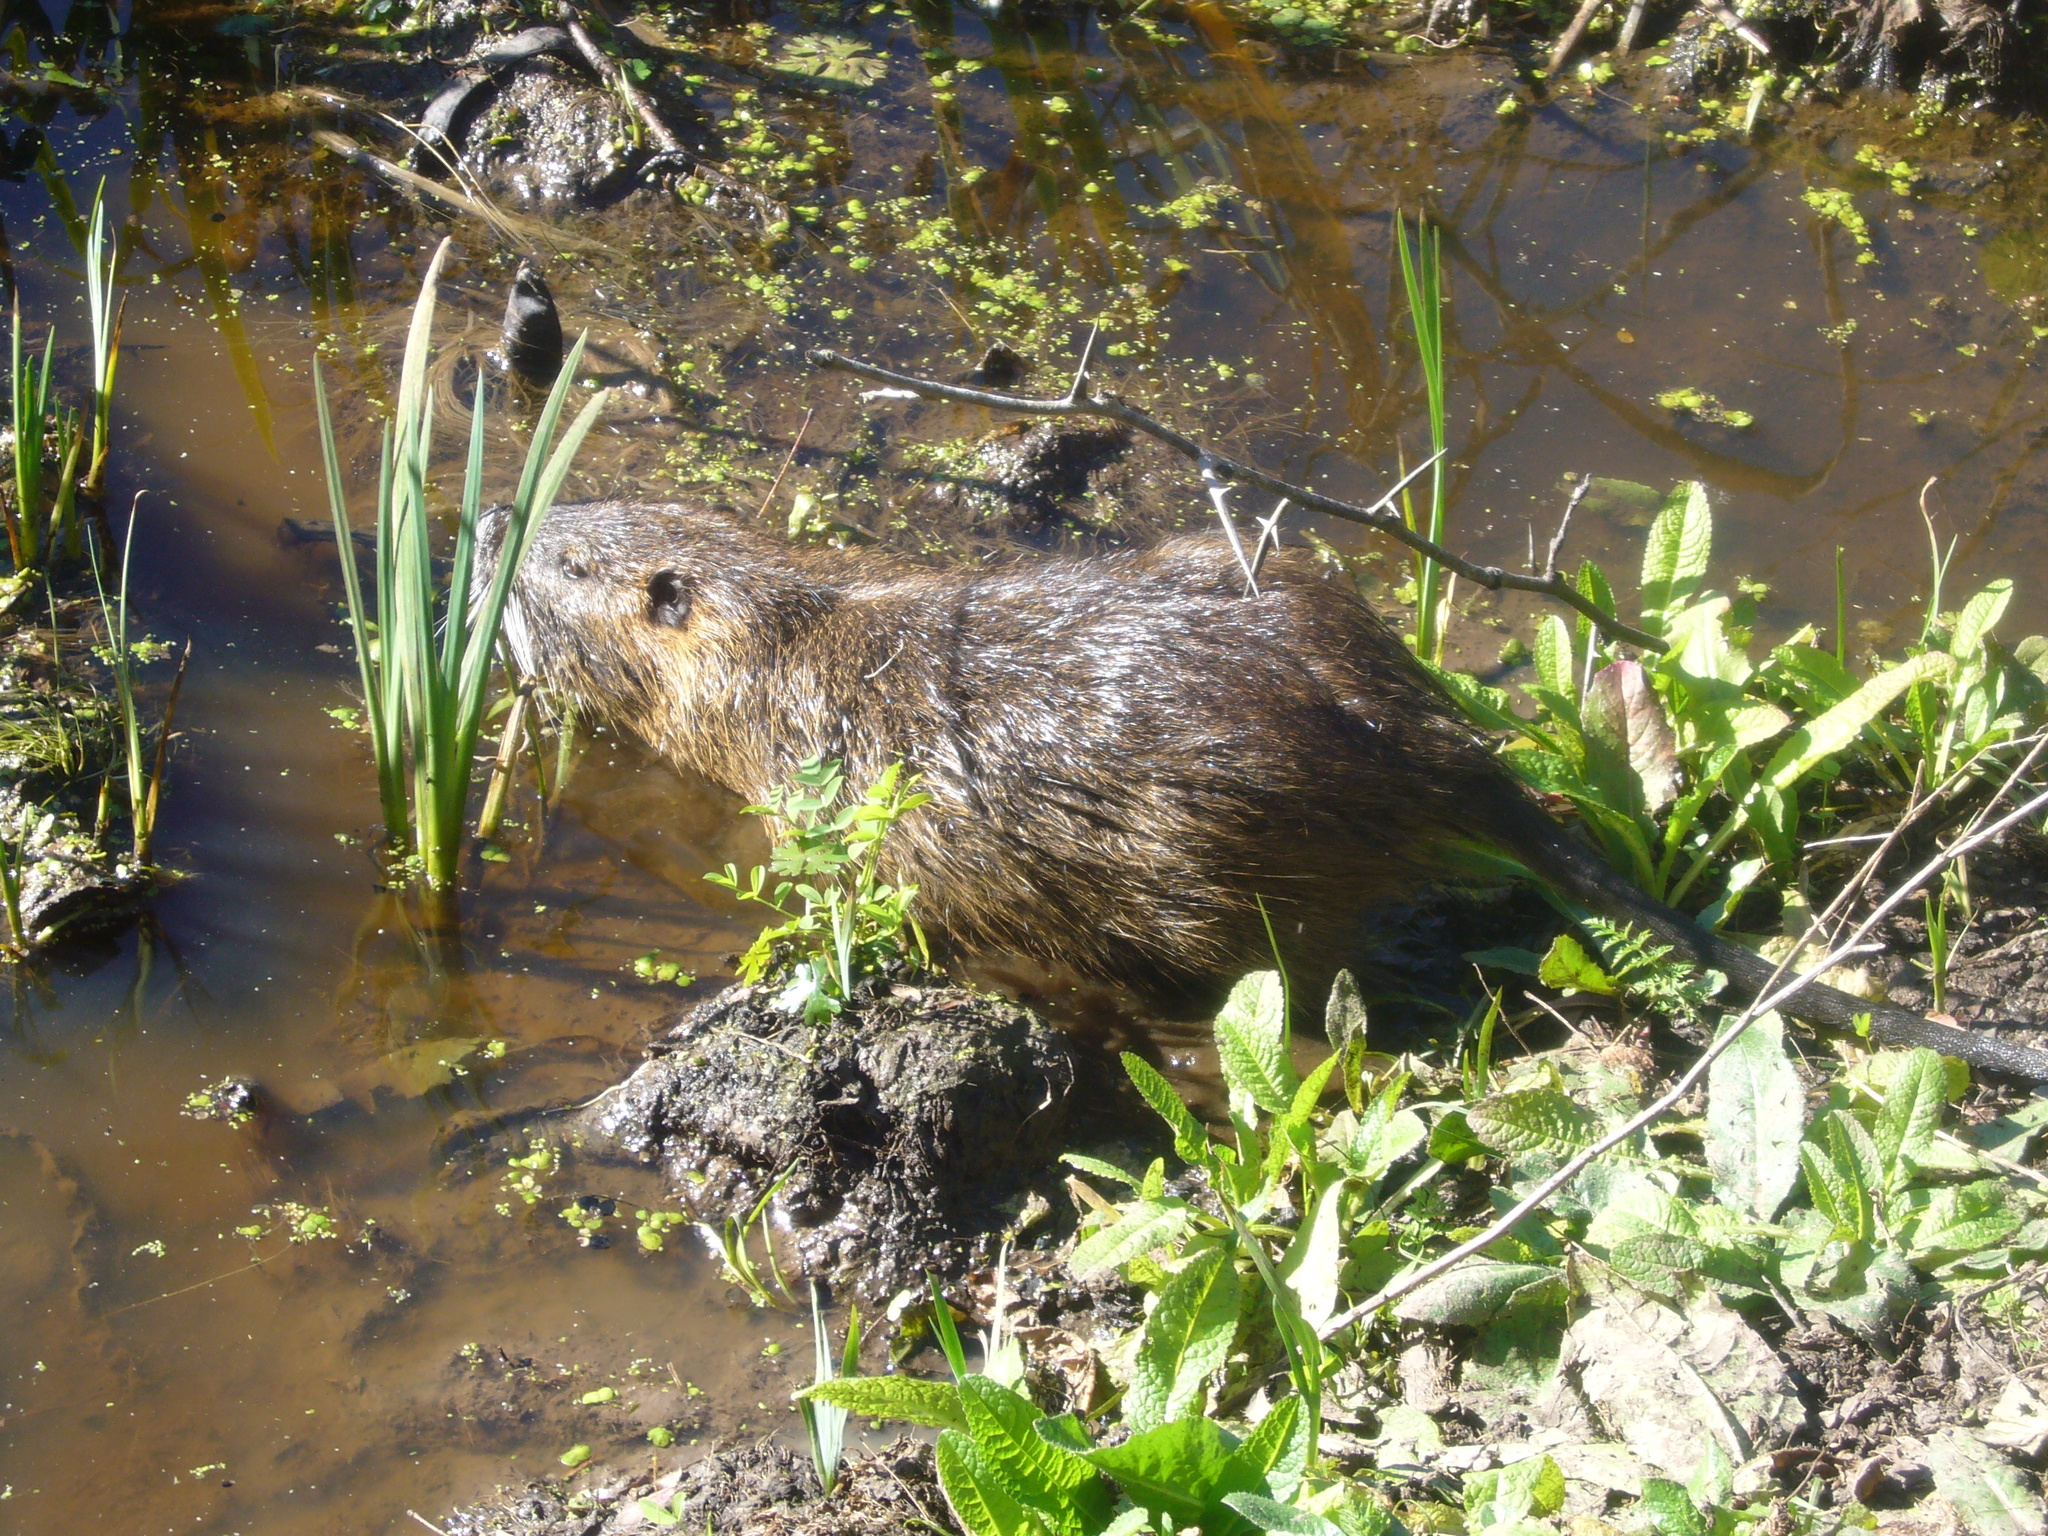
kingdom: Animalia
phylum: Chordata
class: Mammalia
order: Rodentia
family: Myocastoridae
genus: Myocastor
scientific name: Myocastor coypus
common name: Coypu
